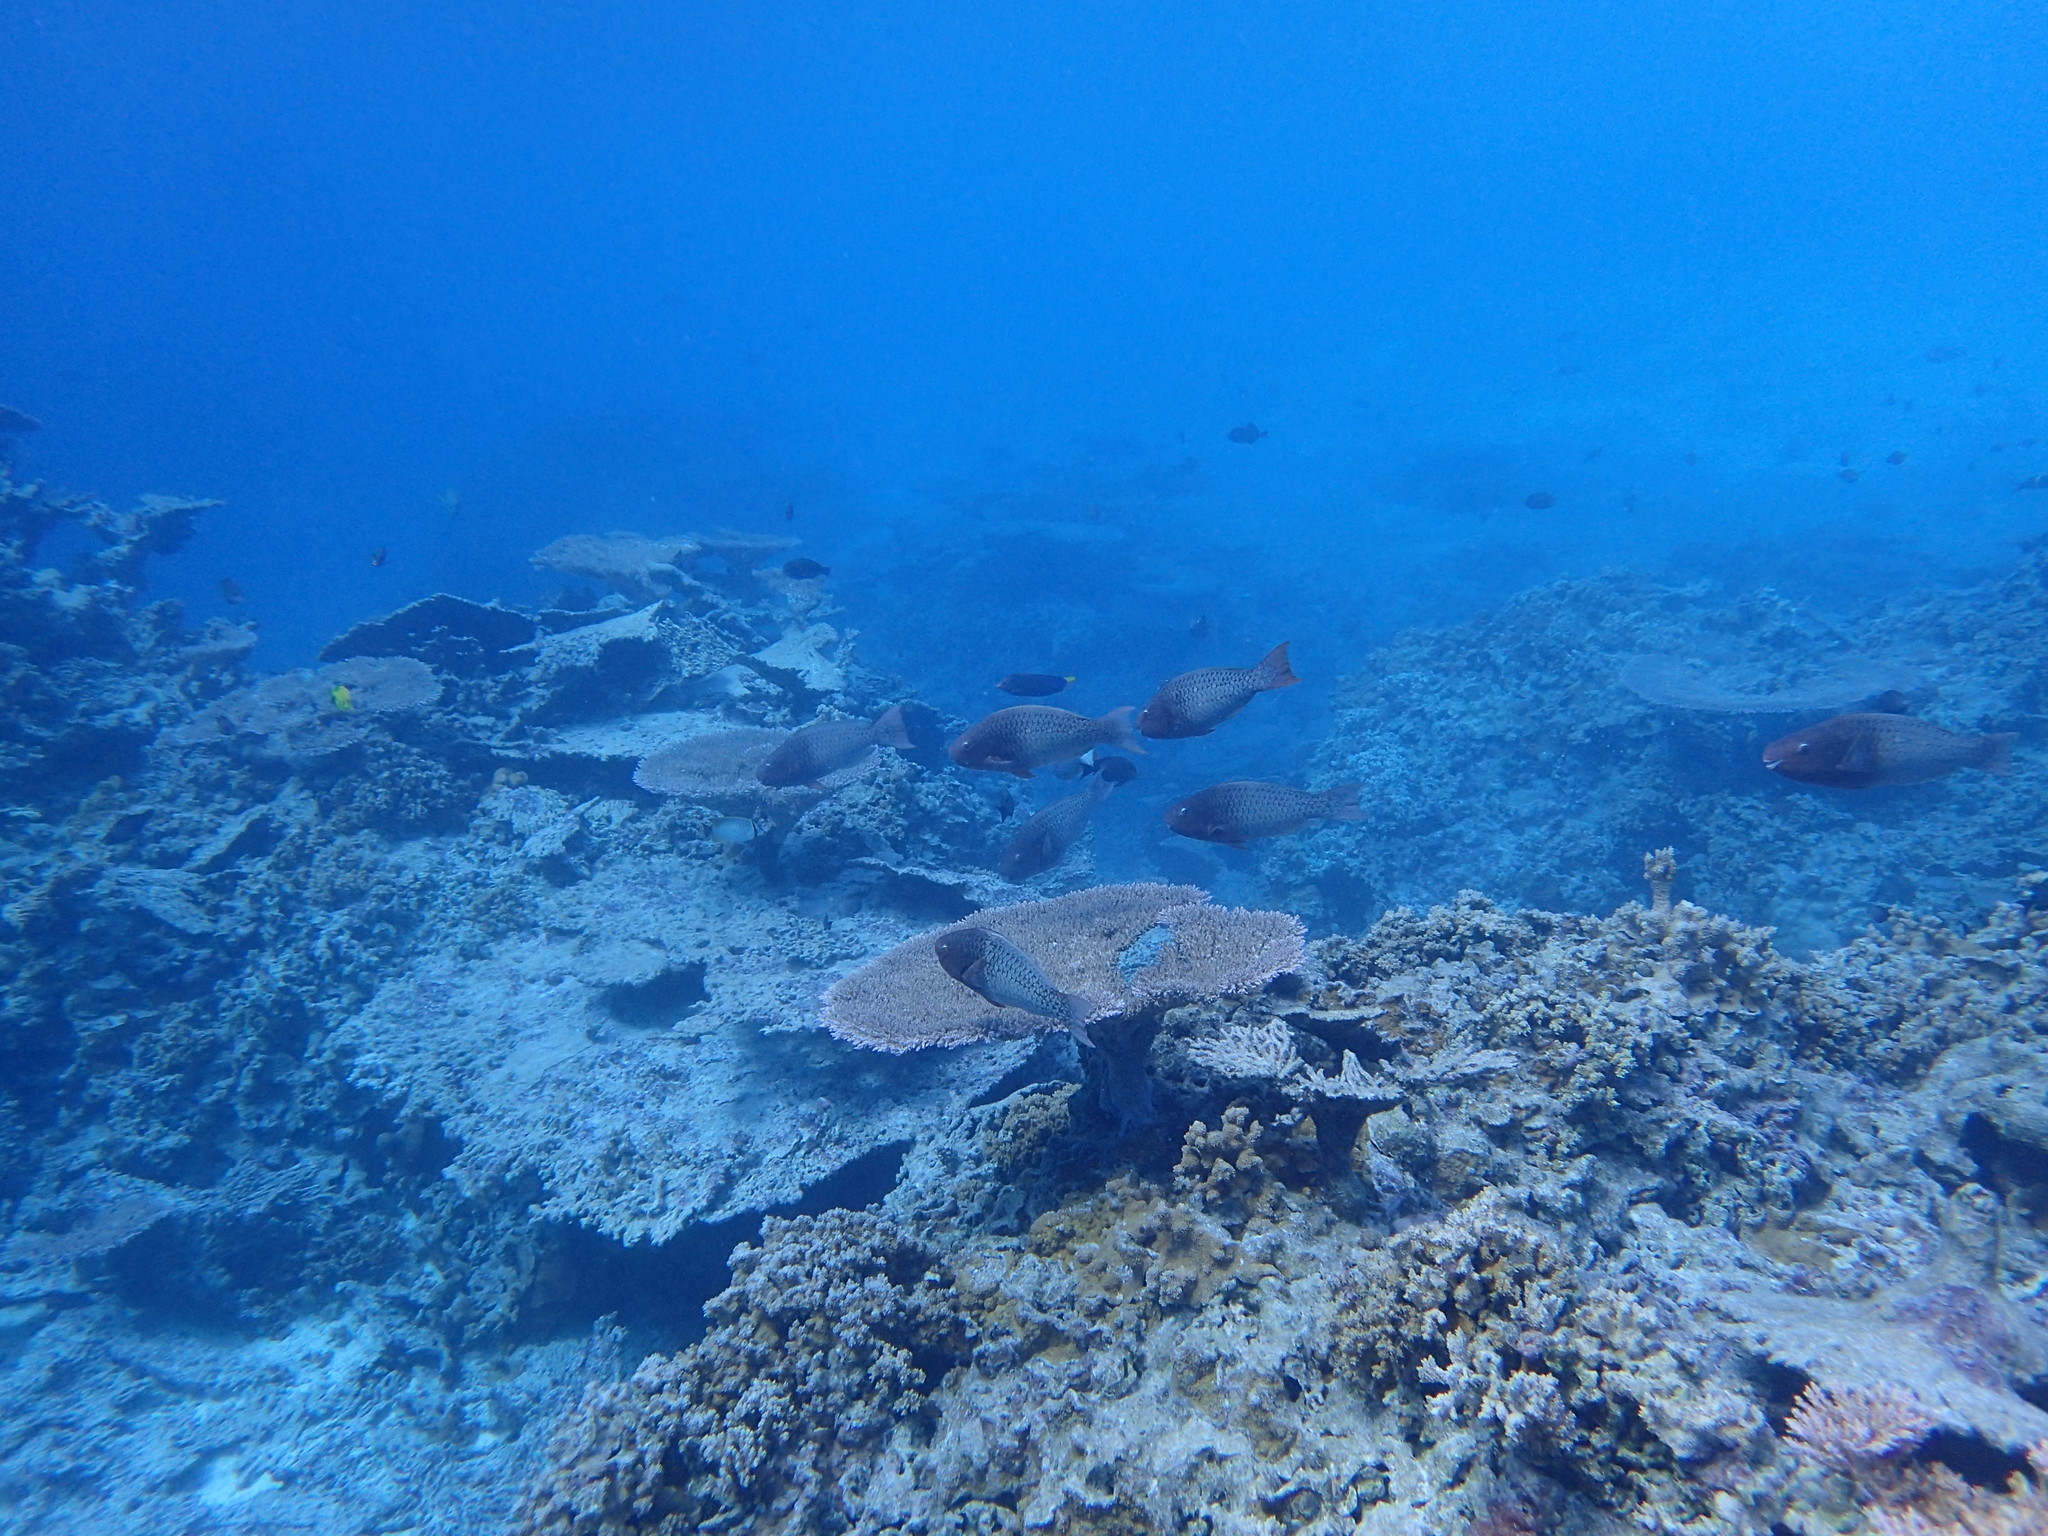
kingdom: Animalia
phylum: Chordata
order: Perciformes
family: Scaridae
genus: Scarus
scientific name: Scarus rubroviolaceus
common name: Ember parrotfish
